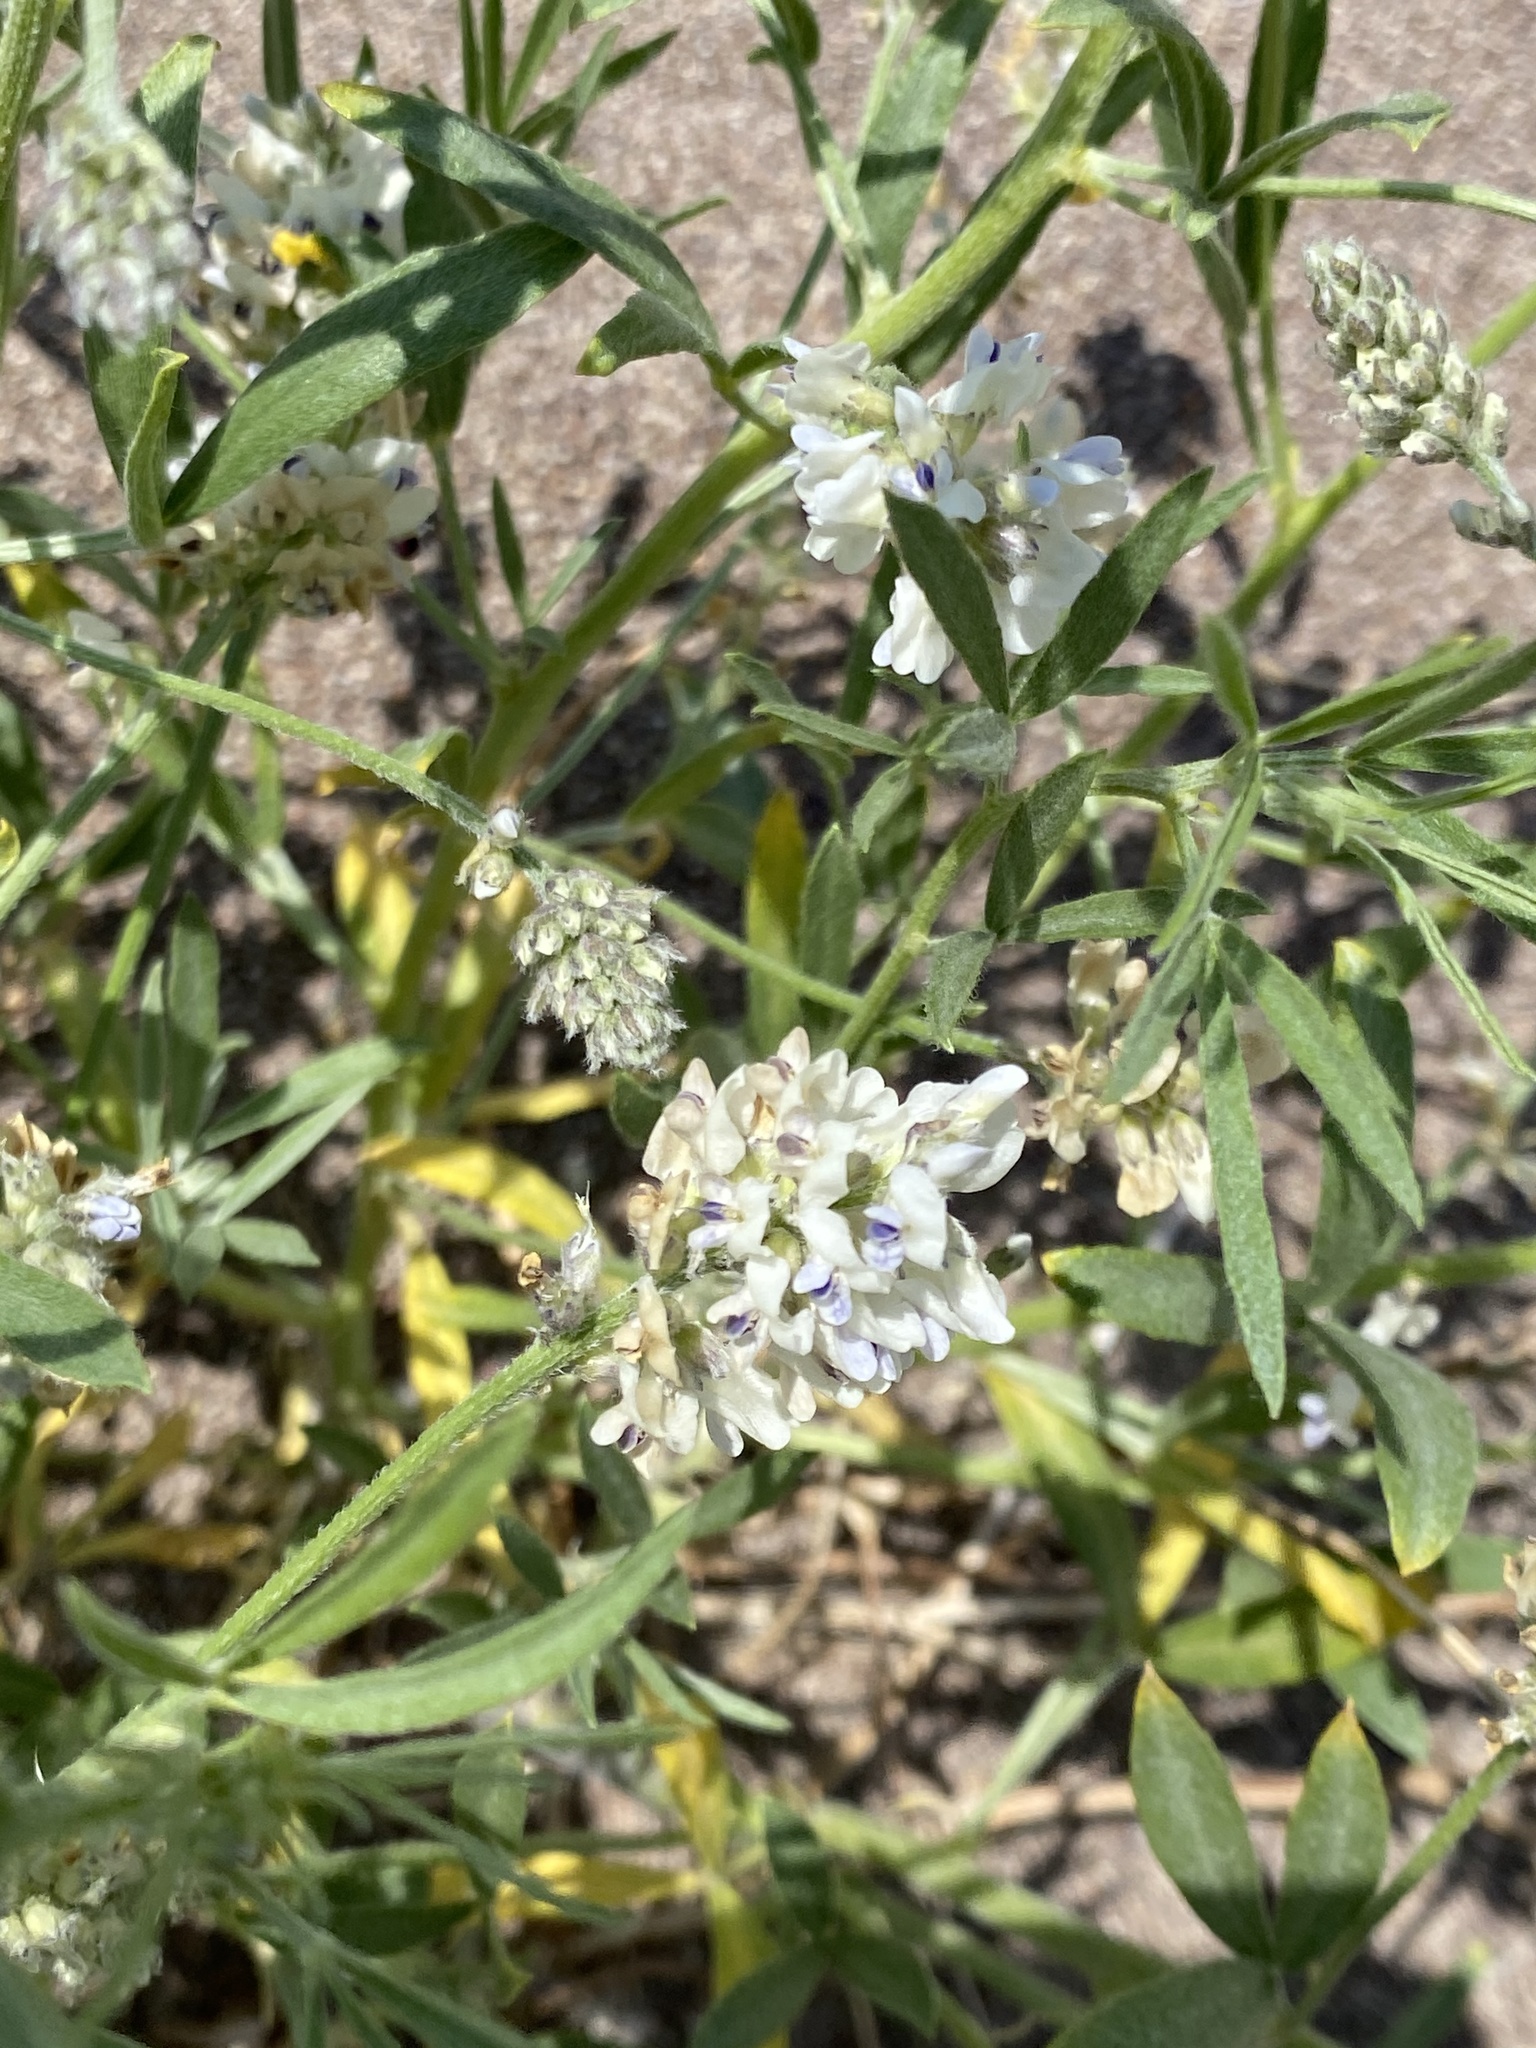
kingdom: Plantae
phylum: Tracheophyta
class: Magnoliopsida
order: Fabales
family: Fabaceae
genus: Ladeania
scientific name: Ladeania lanceolata
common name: Dune scurf-pea
